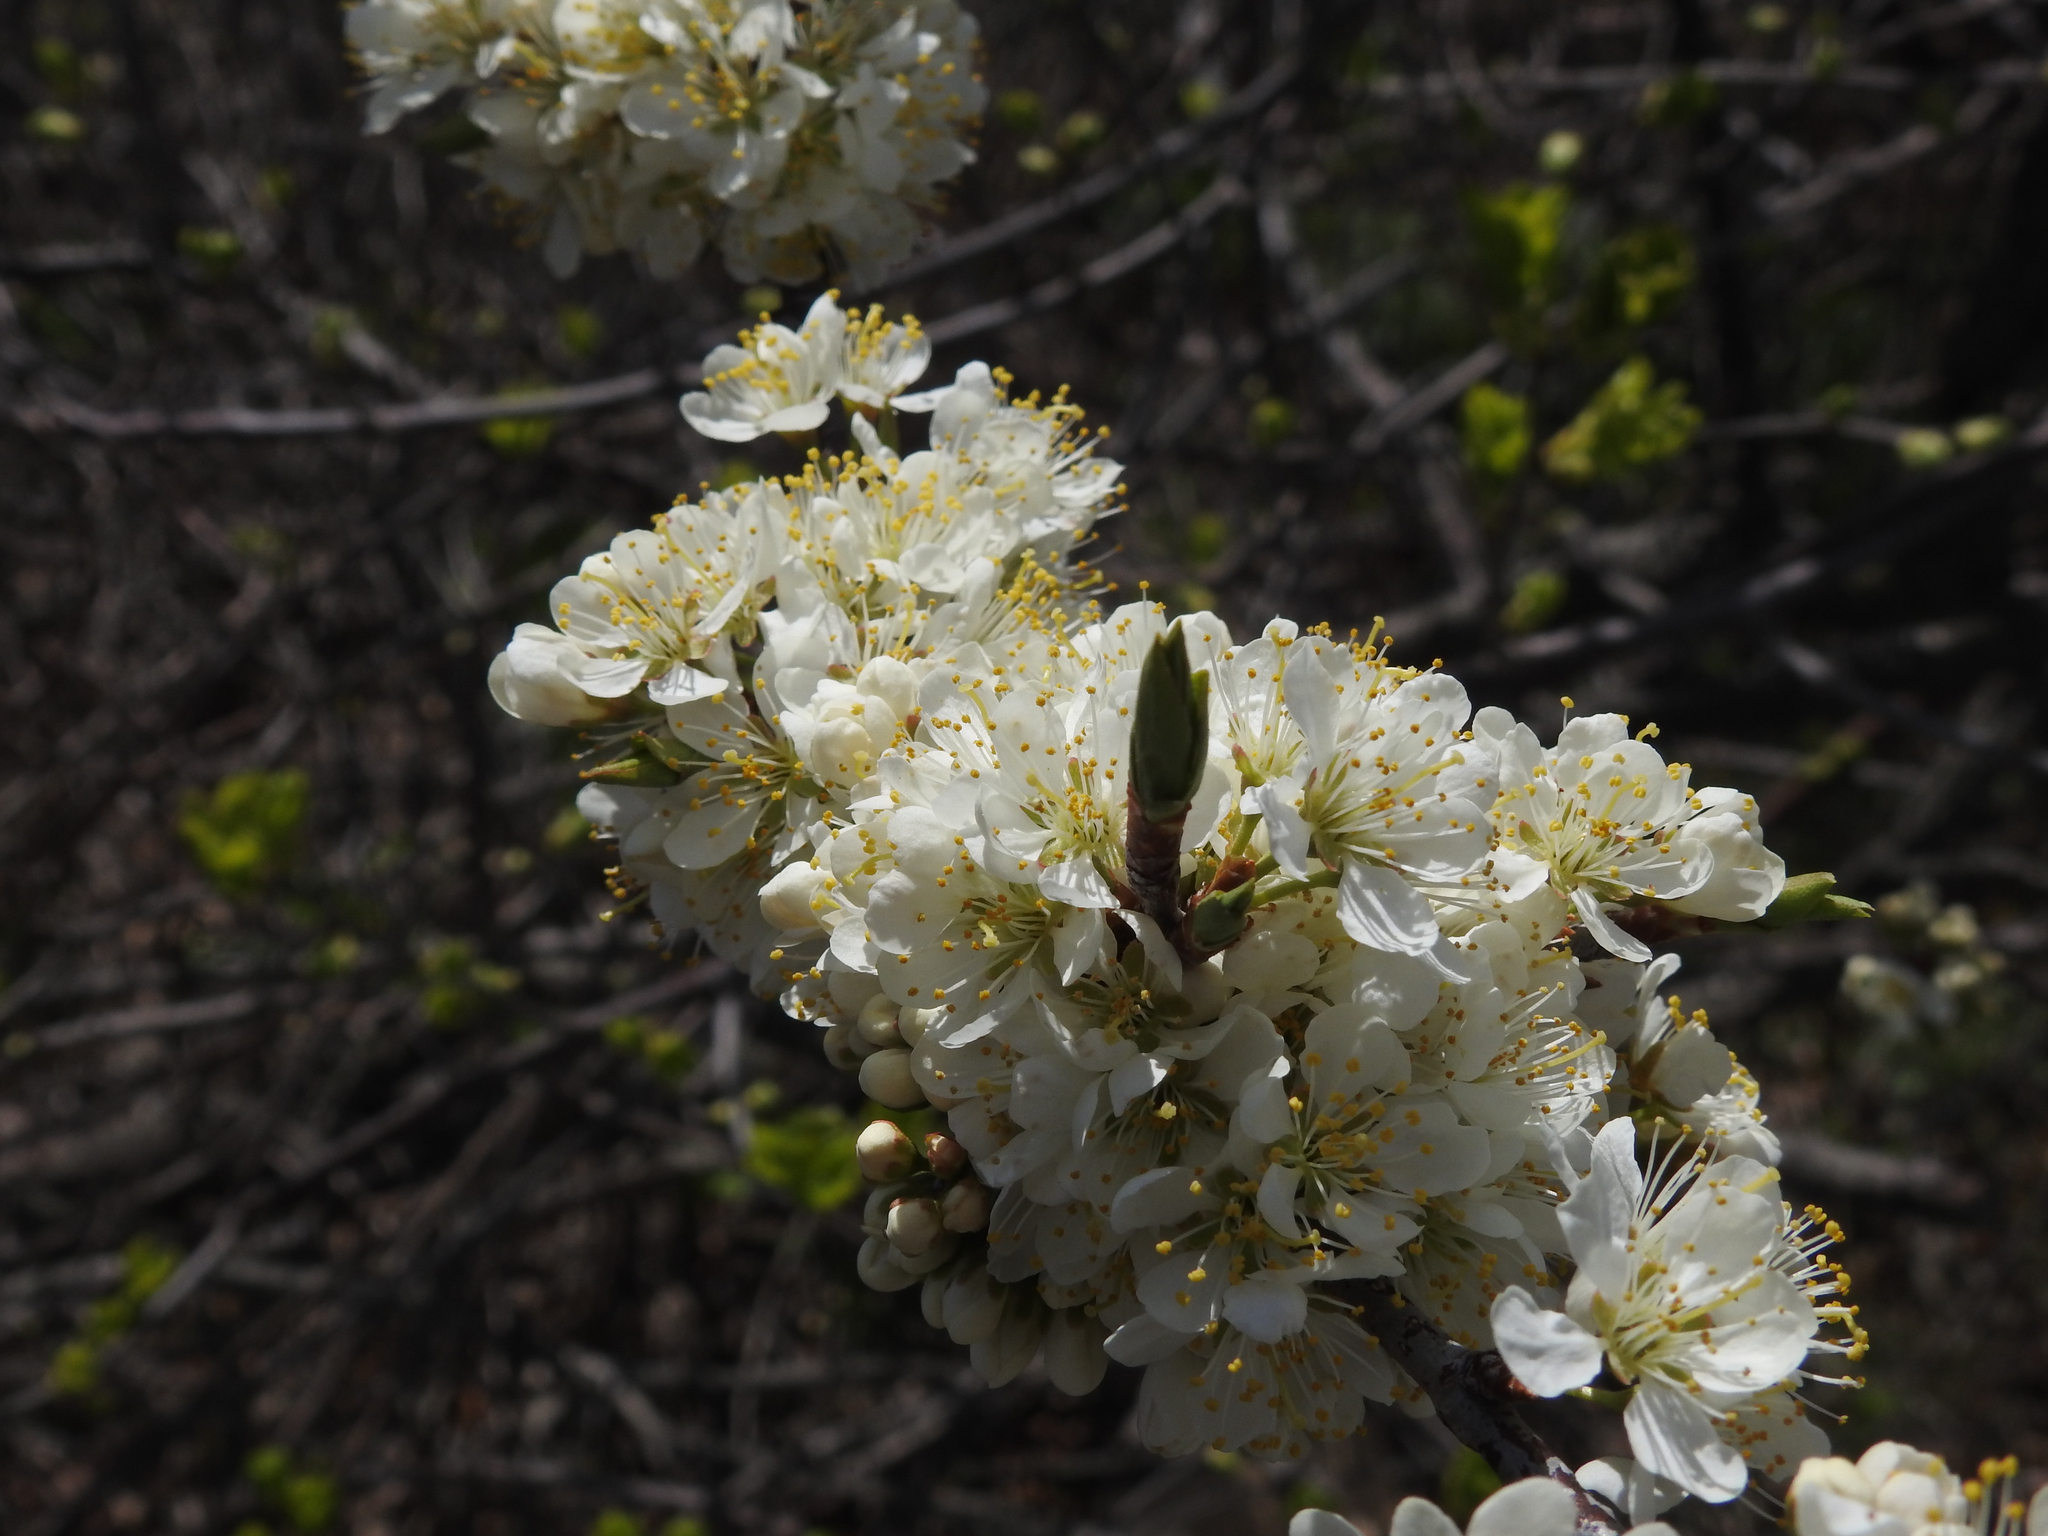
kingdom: Plantae
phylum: Tracheophyta
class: Magnoliopsida
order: Rosales
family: Rosaceae
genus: Prunus
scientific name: Prunus maritima
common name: Beach plum
